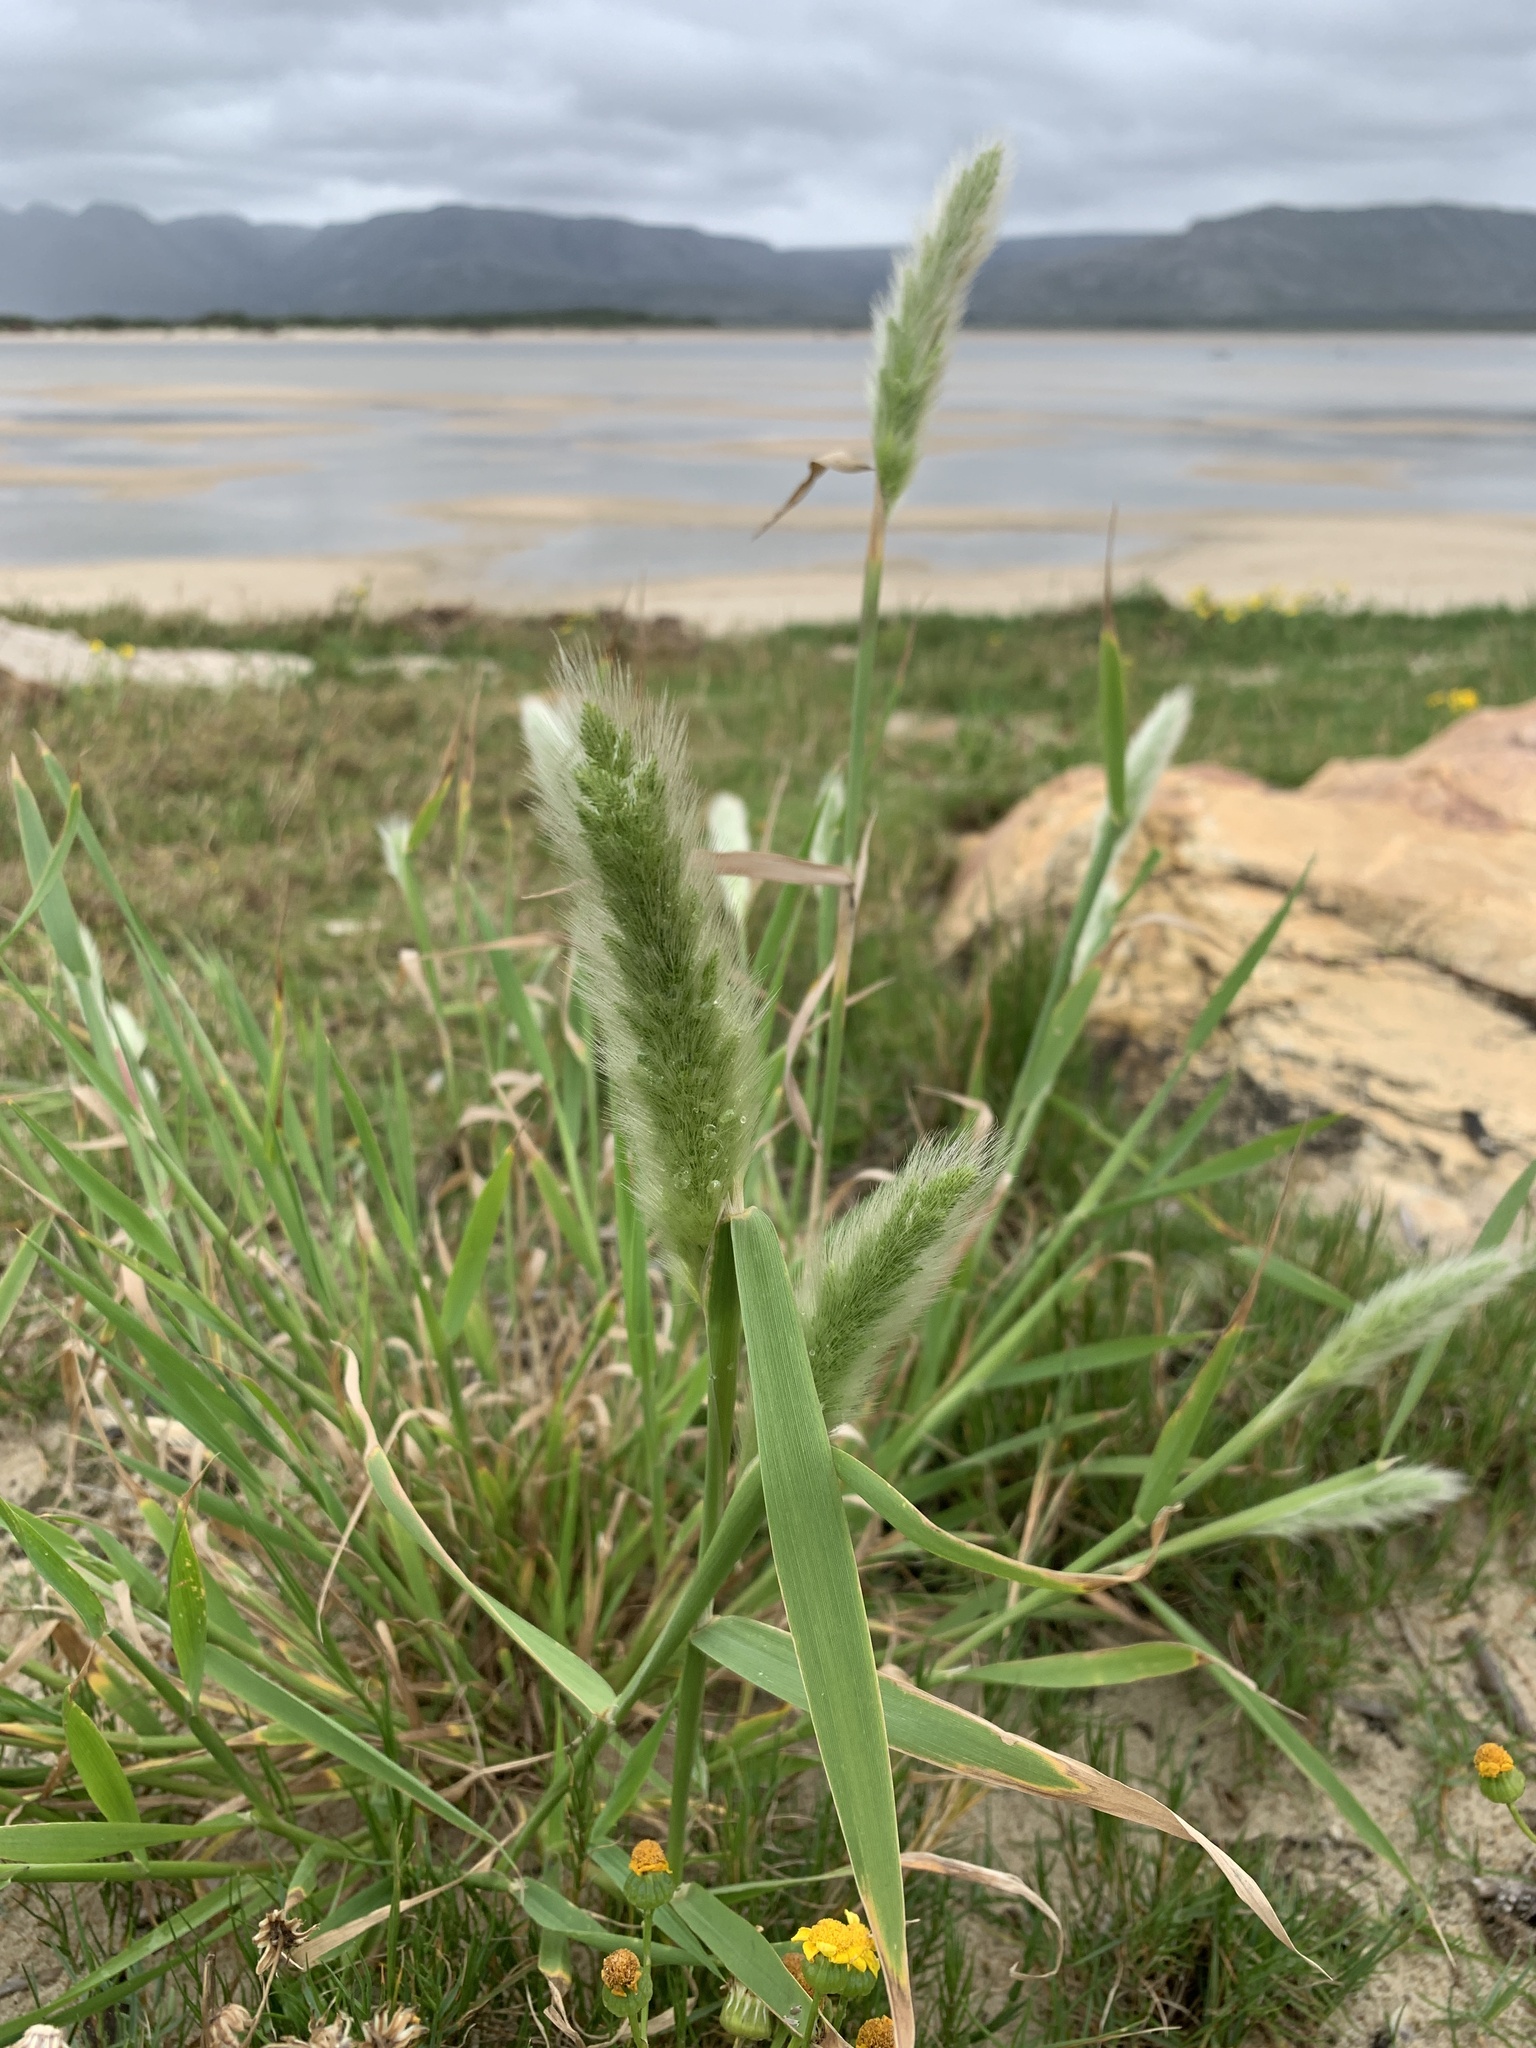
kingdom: Plantae
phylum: Tracheophyta
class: Liliopsida
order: Poales
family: Poaceae
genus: Polypogon
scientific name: Polypogon monspeliensis
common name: Annual rabbitsfoot grass
